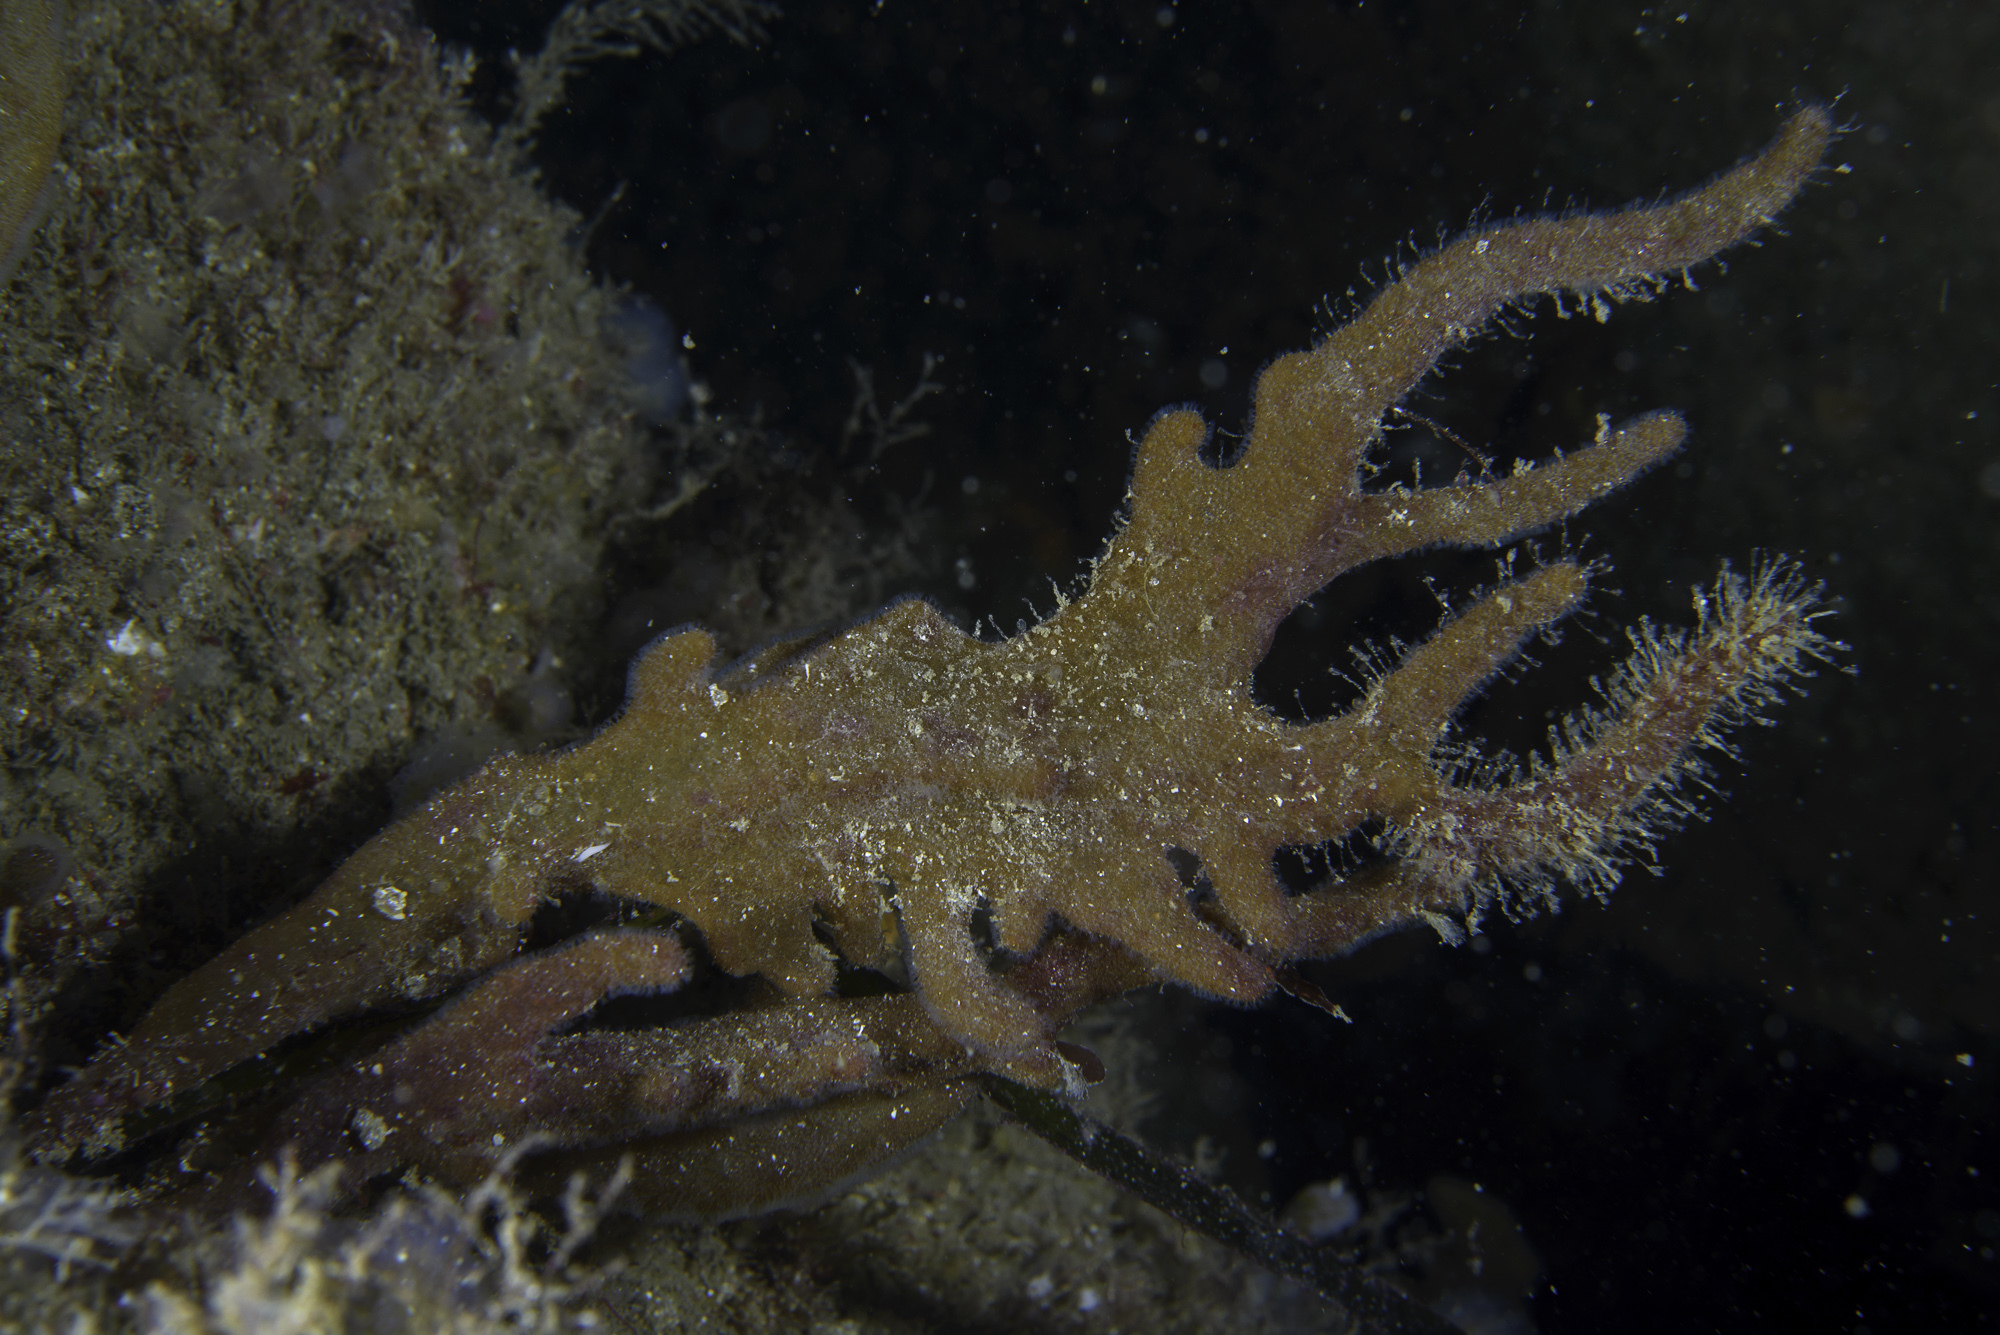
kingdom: Animalia
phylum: Bryozoa
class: Gymnolaemata
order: Ctenostomatida
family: Alcyonidiidae
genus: Alcyonidium
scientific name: Alcyonidium diaphanum
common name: Sea chervil
